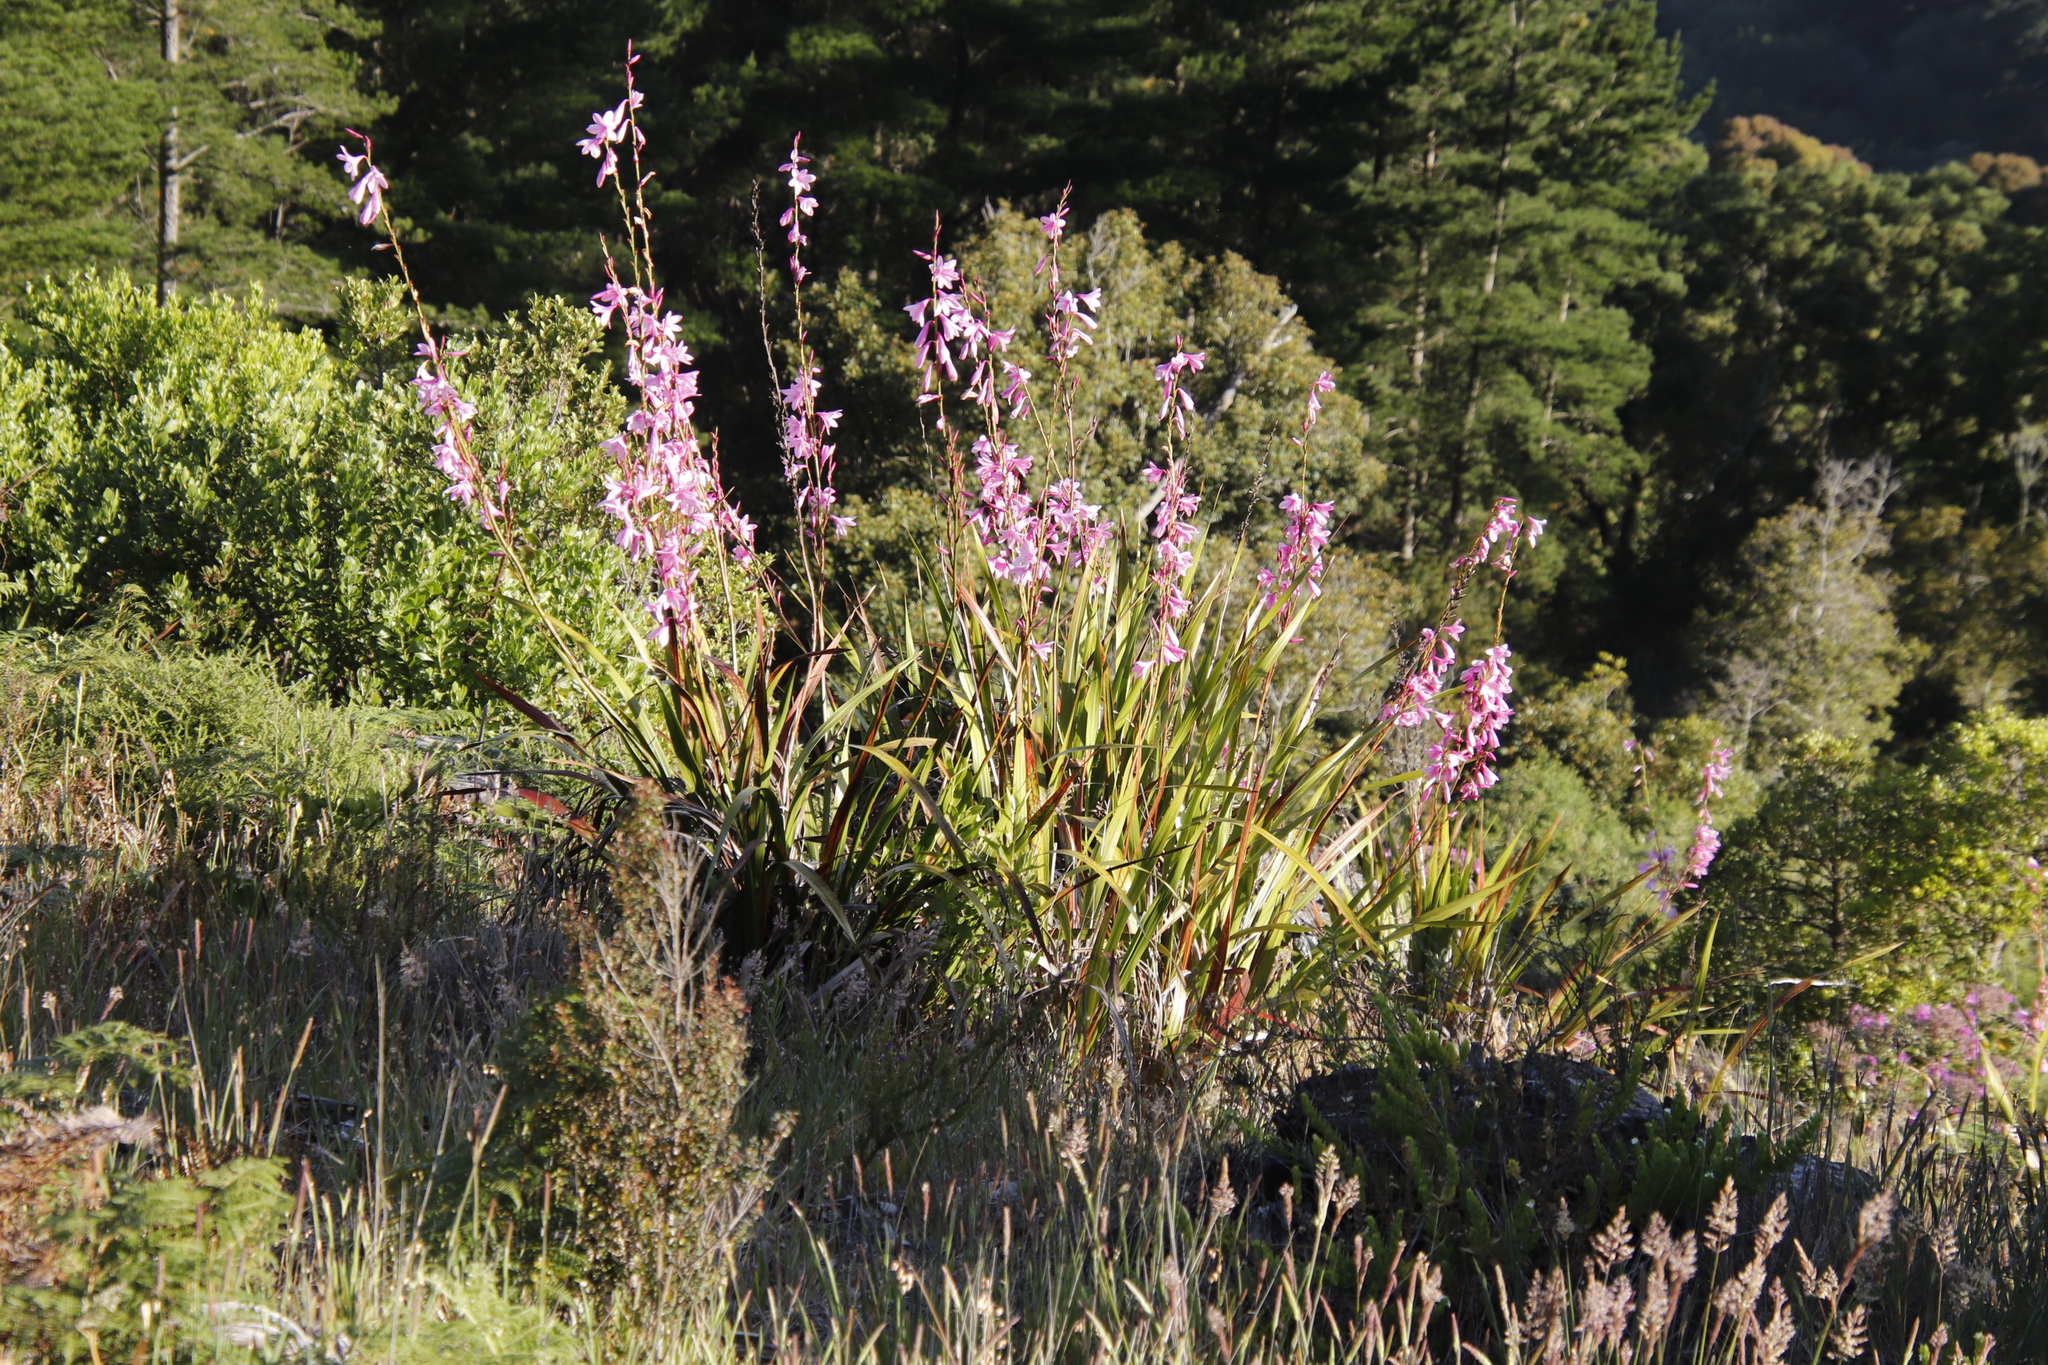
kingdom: Plantae
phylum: Tracheophyta
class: Liliopsida
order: Asparagales
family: Iridaceae
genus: Watsonia
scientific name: Watsonia borbonica
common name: Bugle-lily
